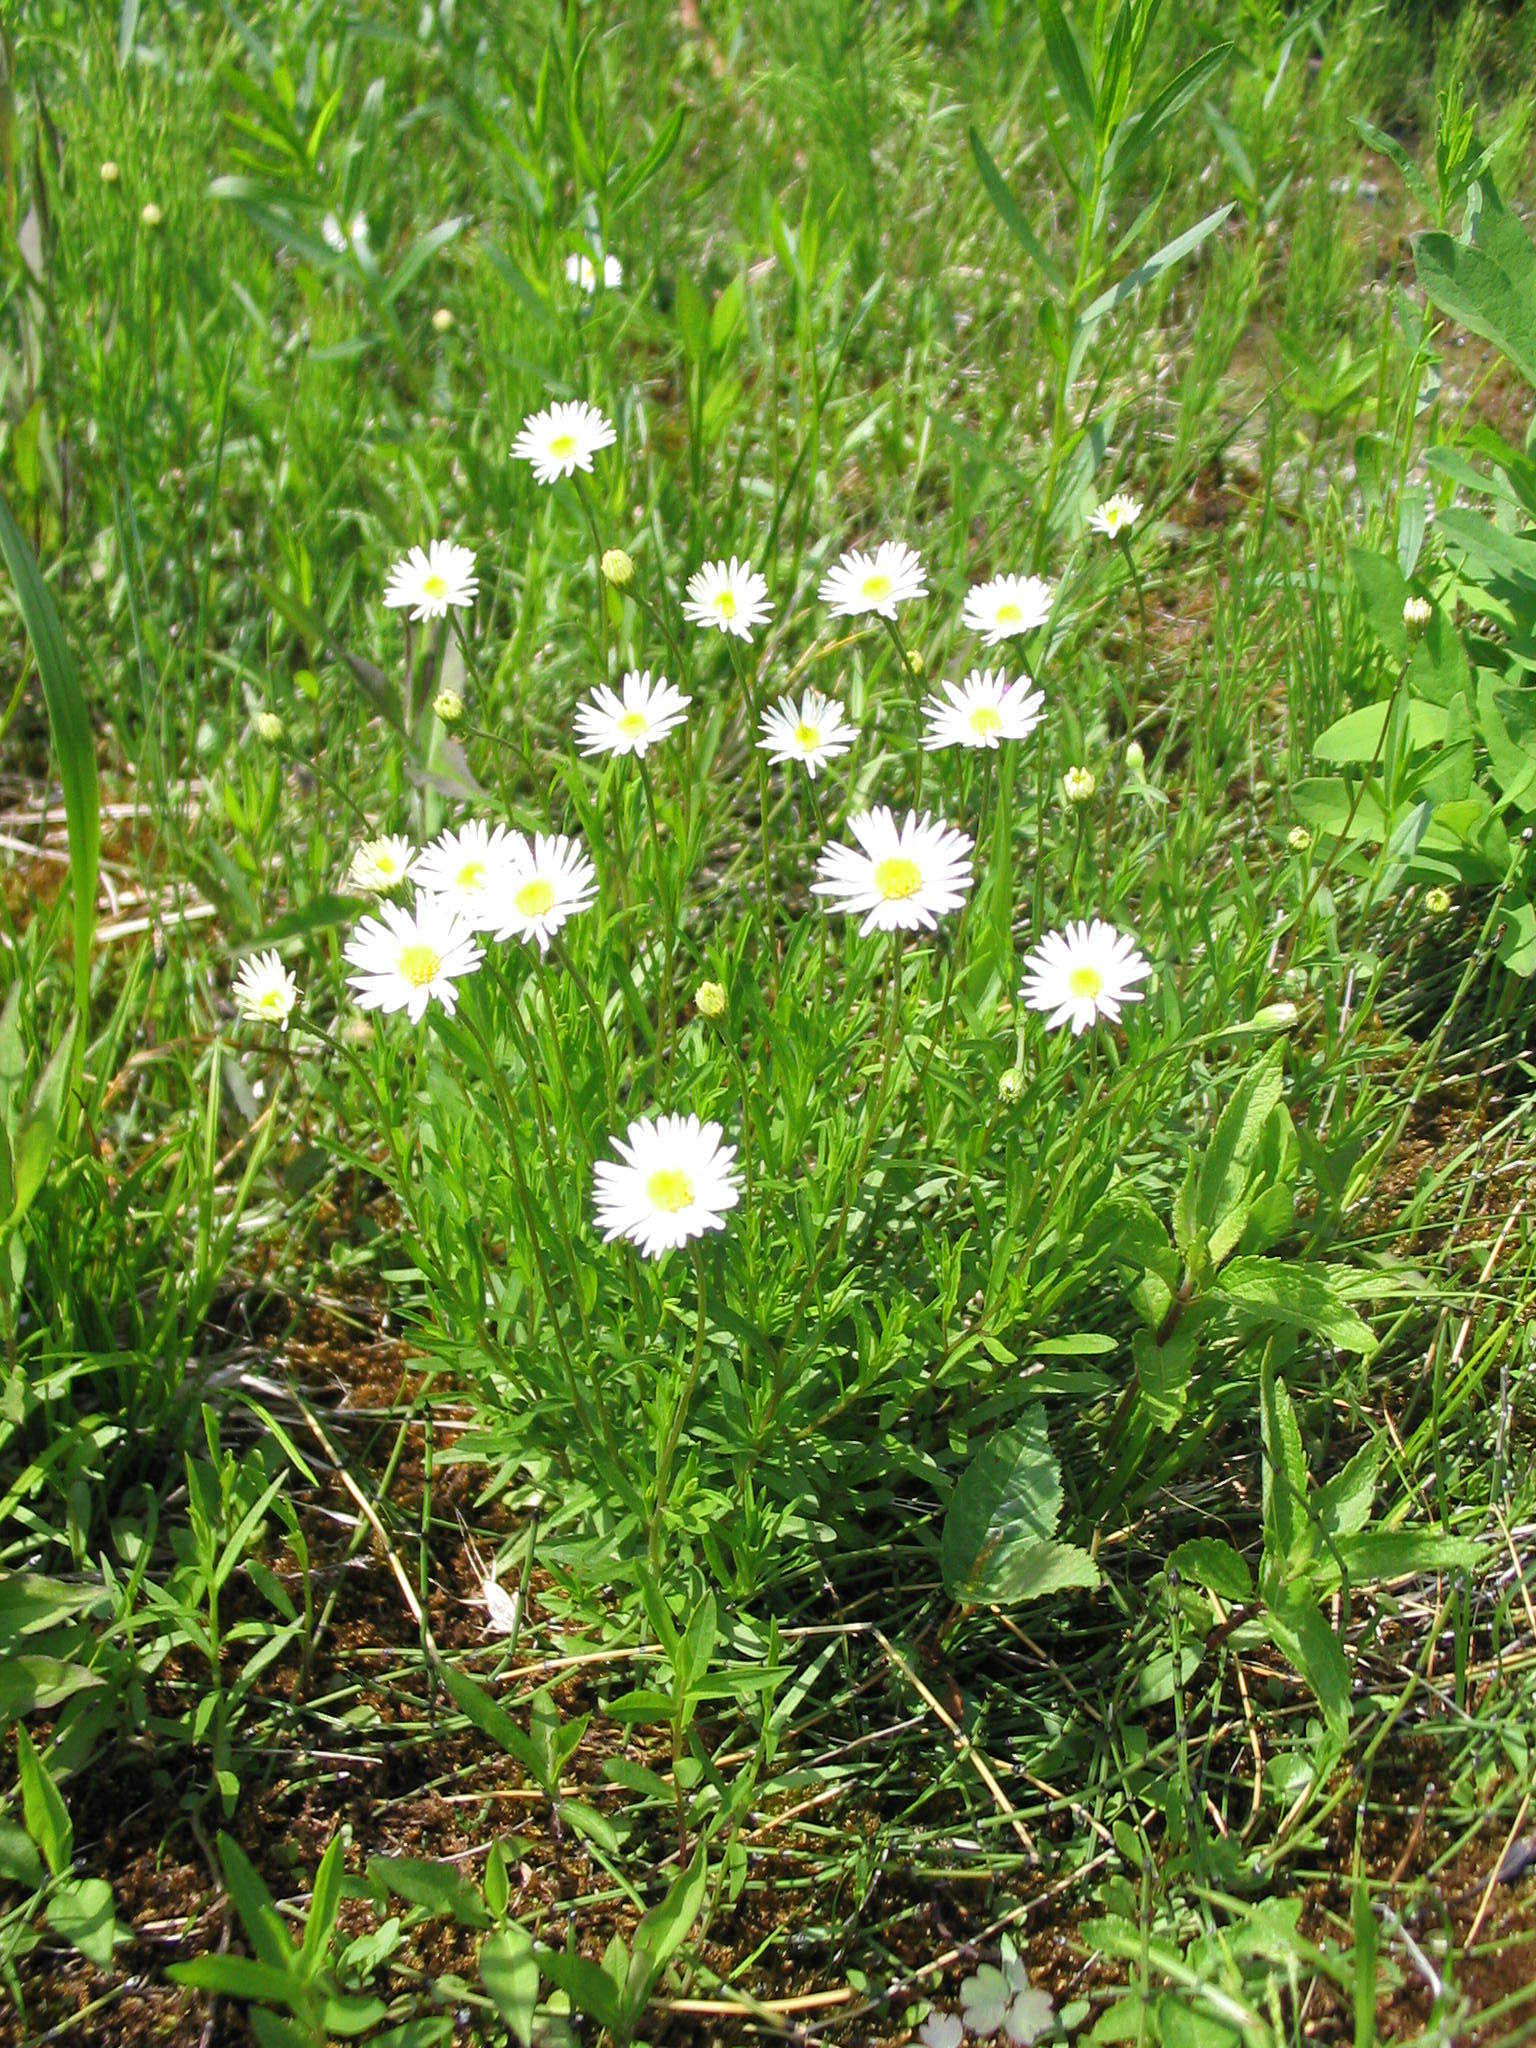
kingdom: Plantae
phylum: Tracheophyta
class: Magnoliopsida
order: Asterales
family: Asteraceae
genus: Erigeron
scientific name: Erigeron hyssopifolius
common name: Daisy fleabane
